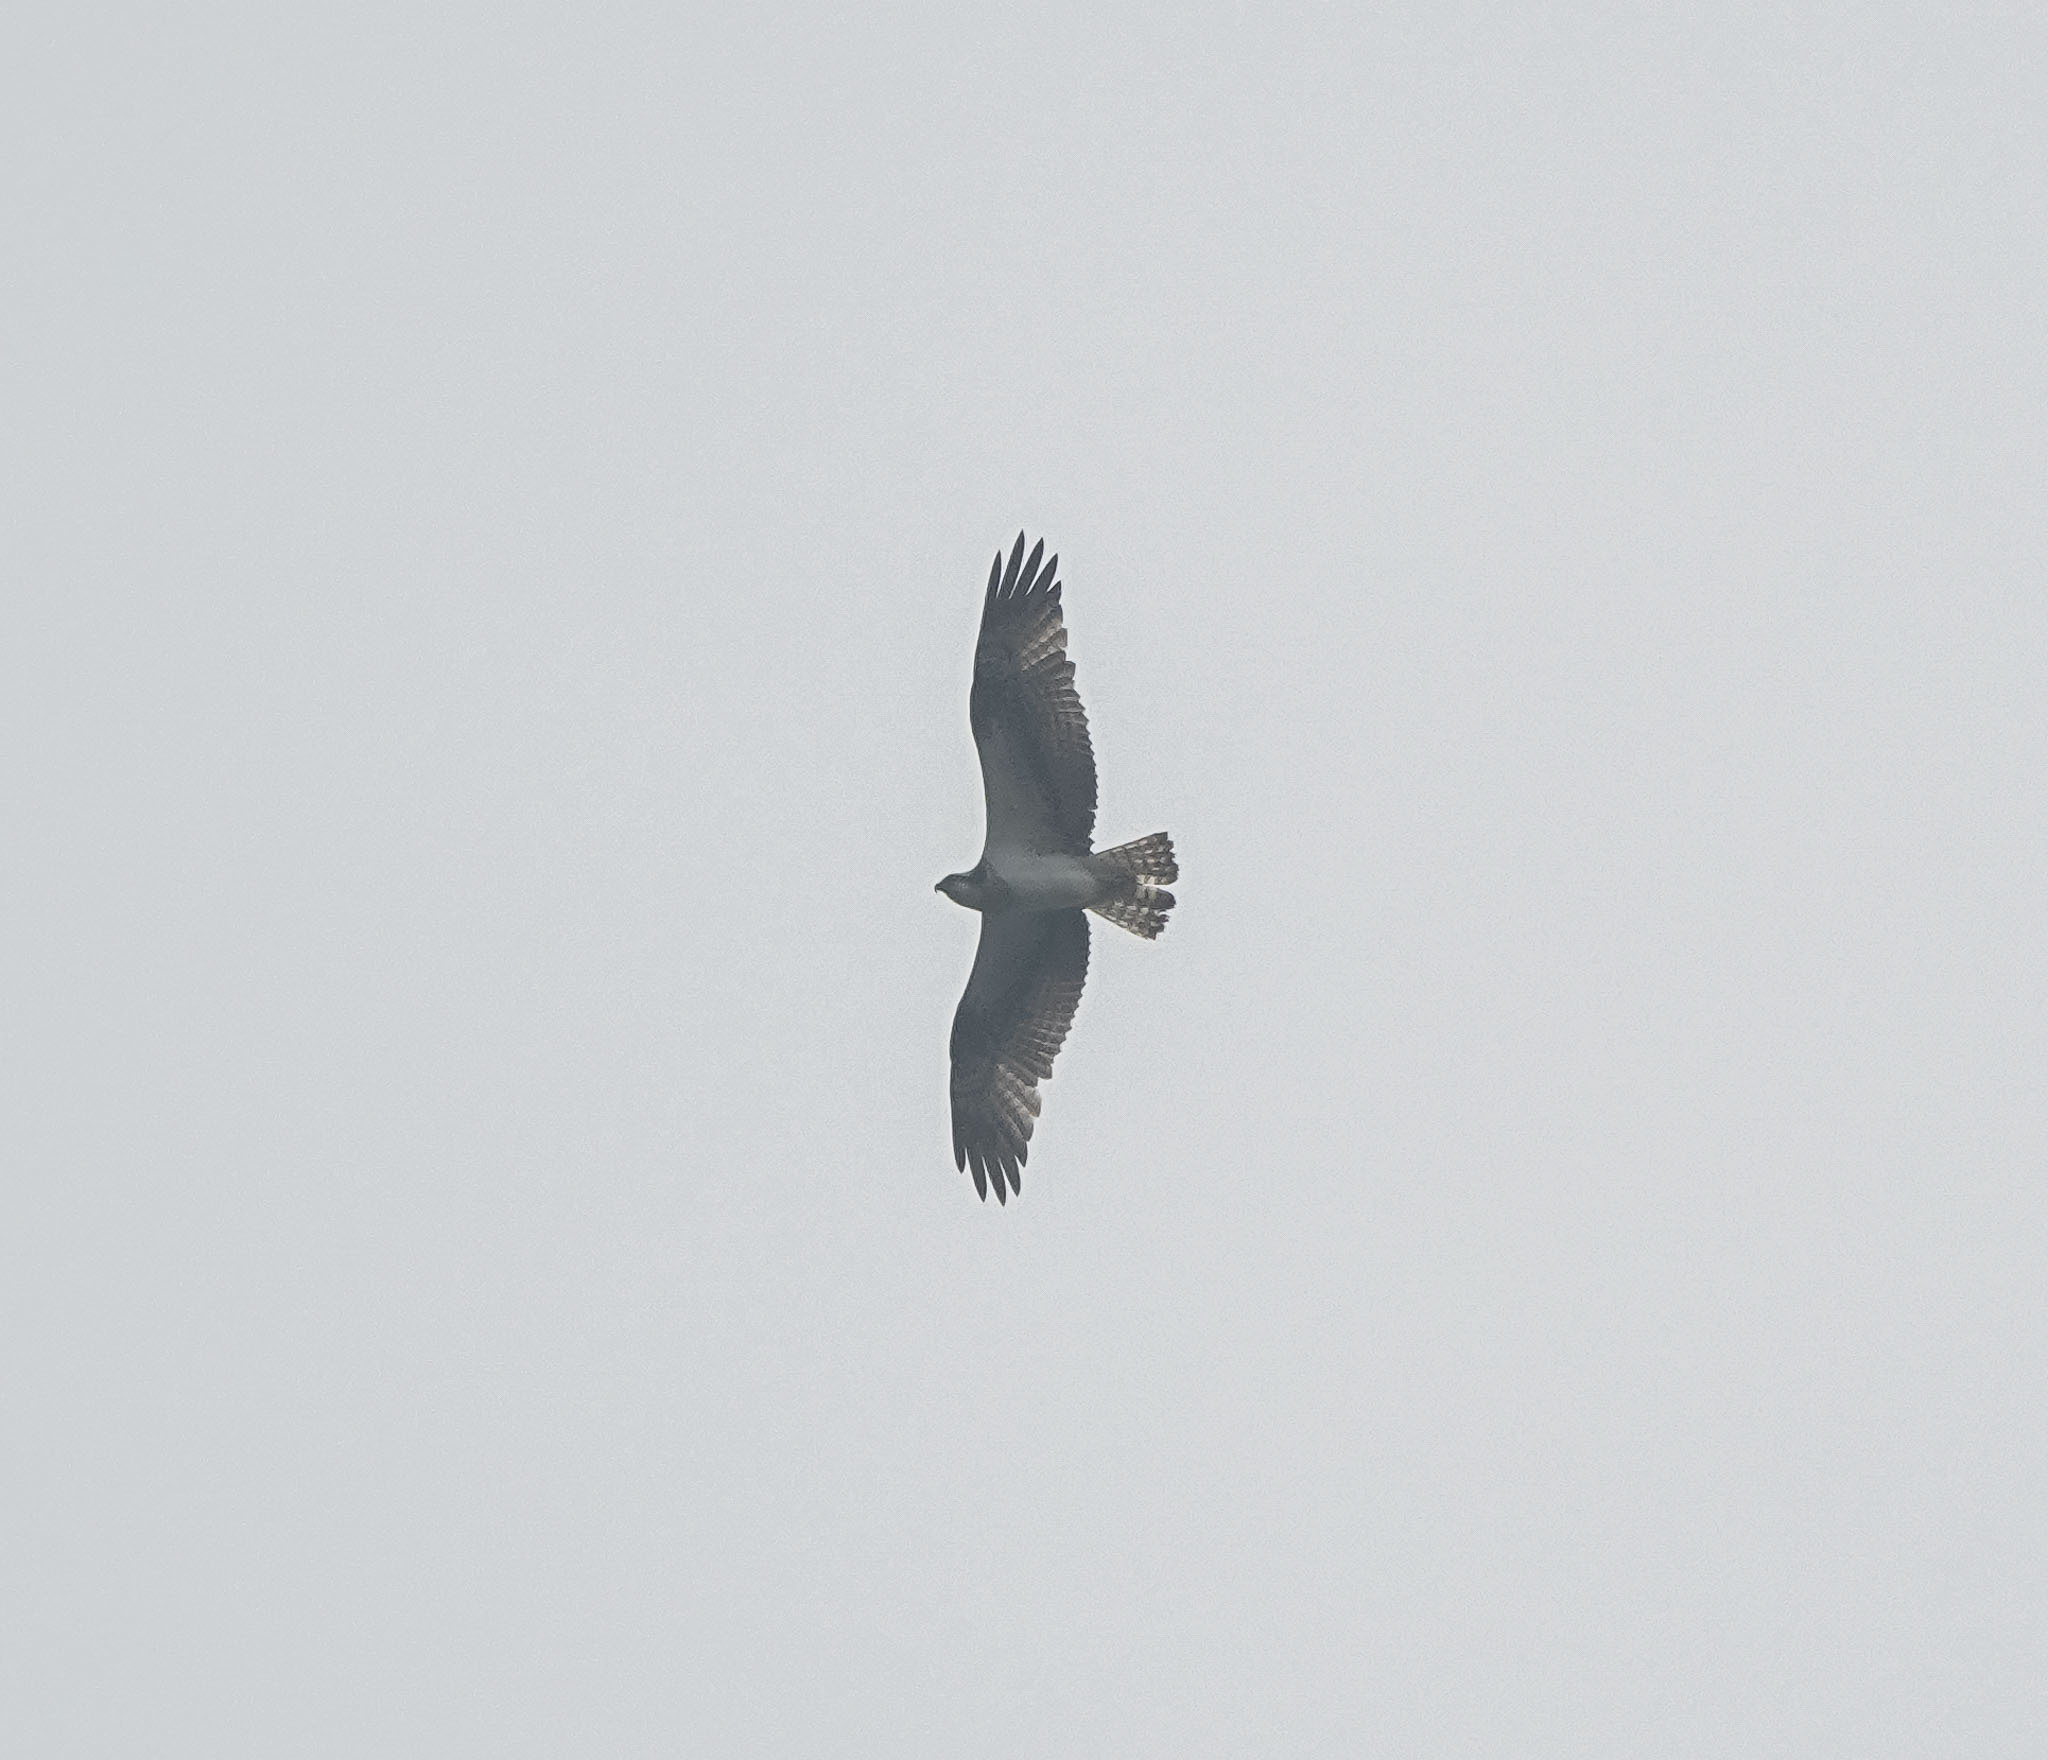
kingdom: Animalia
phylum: Chordata
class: Aves
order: Accipitriformes
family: Pandionidae
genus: Pandion
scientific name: Pandion haliaetus
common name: Osprey
